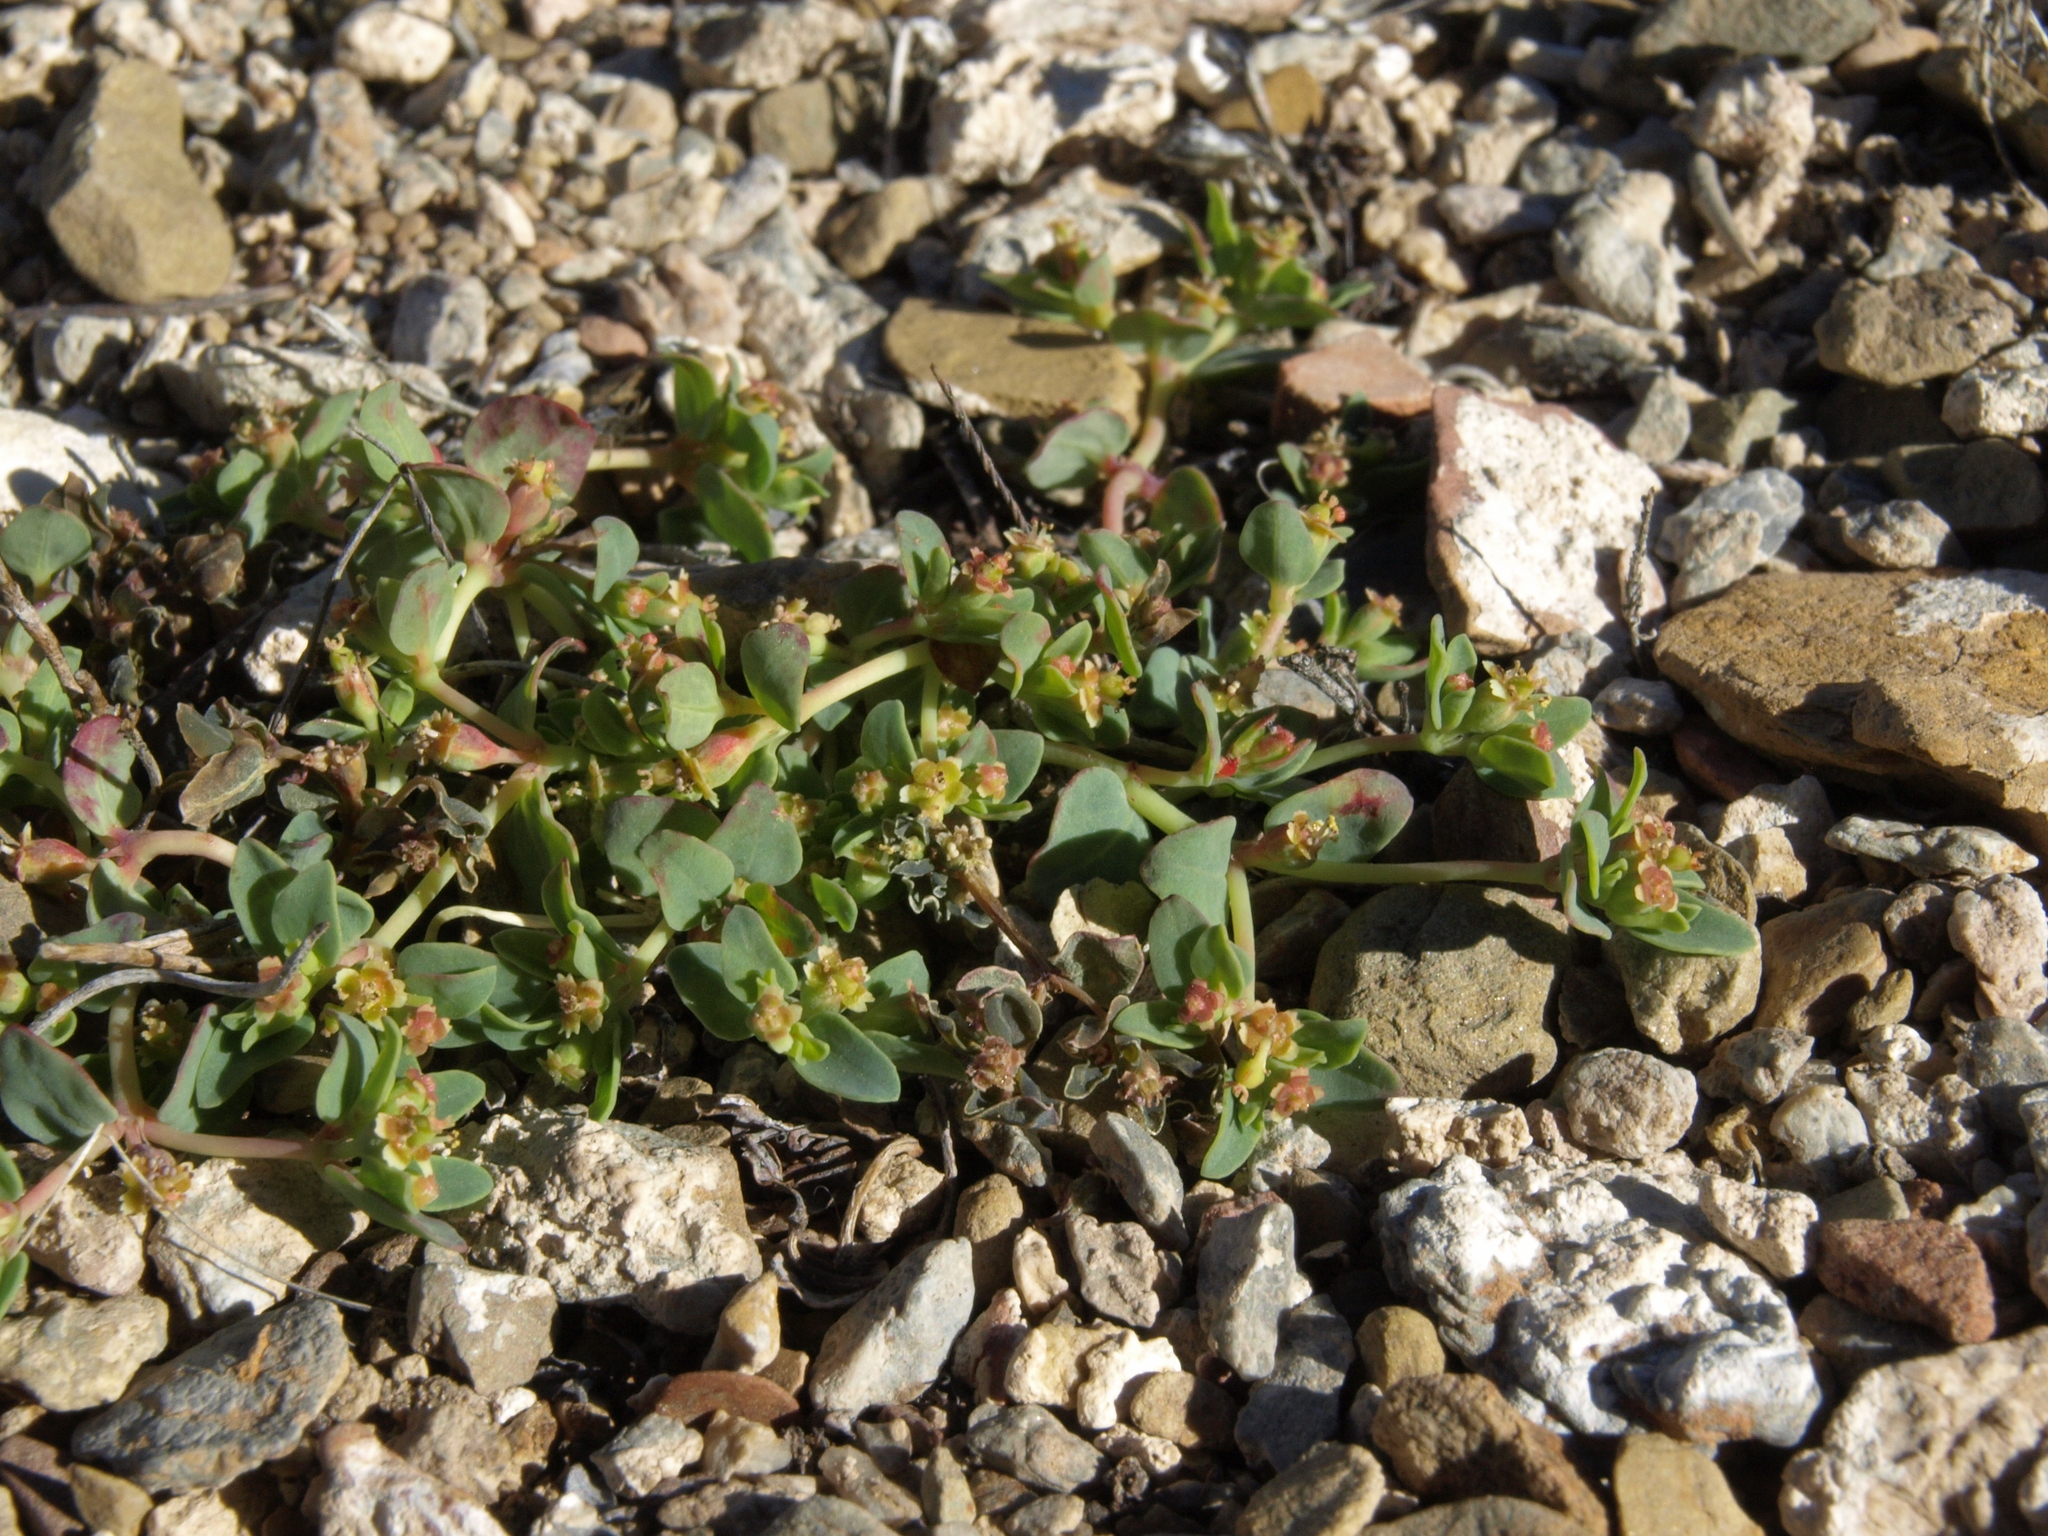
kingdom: Plantae
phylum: Tracheophyta
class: Magnoliopsida
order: Malpighiales
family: Euphorbiaceae
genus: Euphorbia
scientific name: Euphorbia fendleri
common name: Fendler's euphorbia
